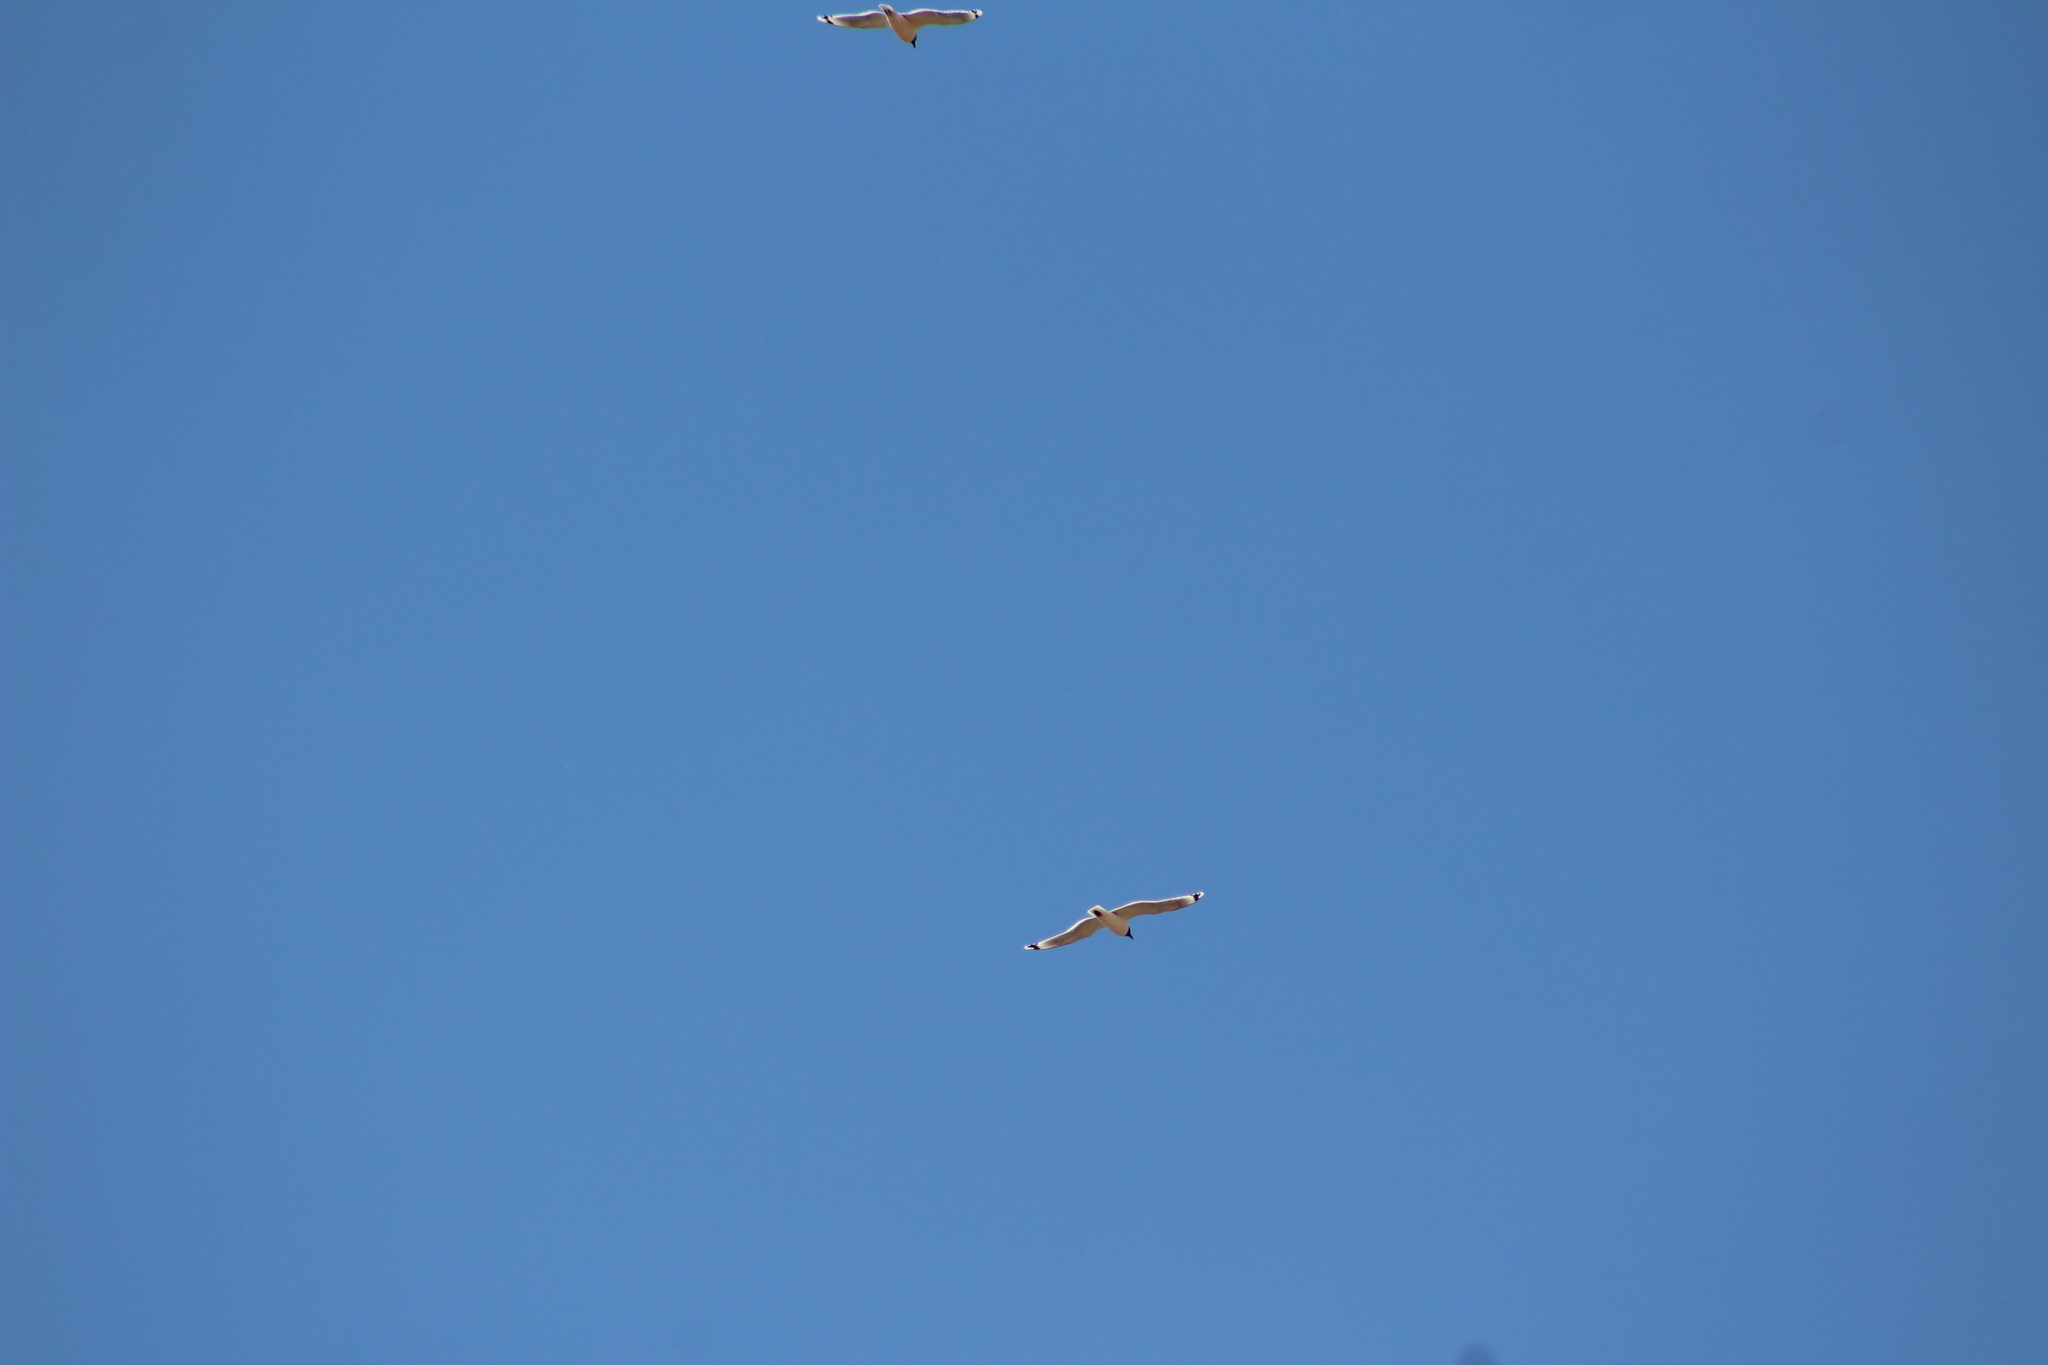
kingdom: Animalia
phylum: Chordata
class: Aves
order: Charadriiformes
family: Laridae
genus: Leucophaeus
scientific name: Leucophaeus pipixcan
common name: Franklin's gull
